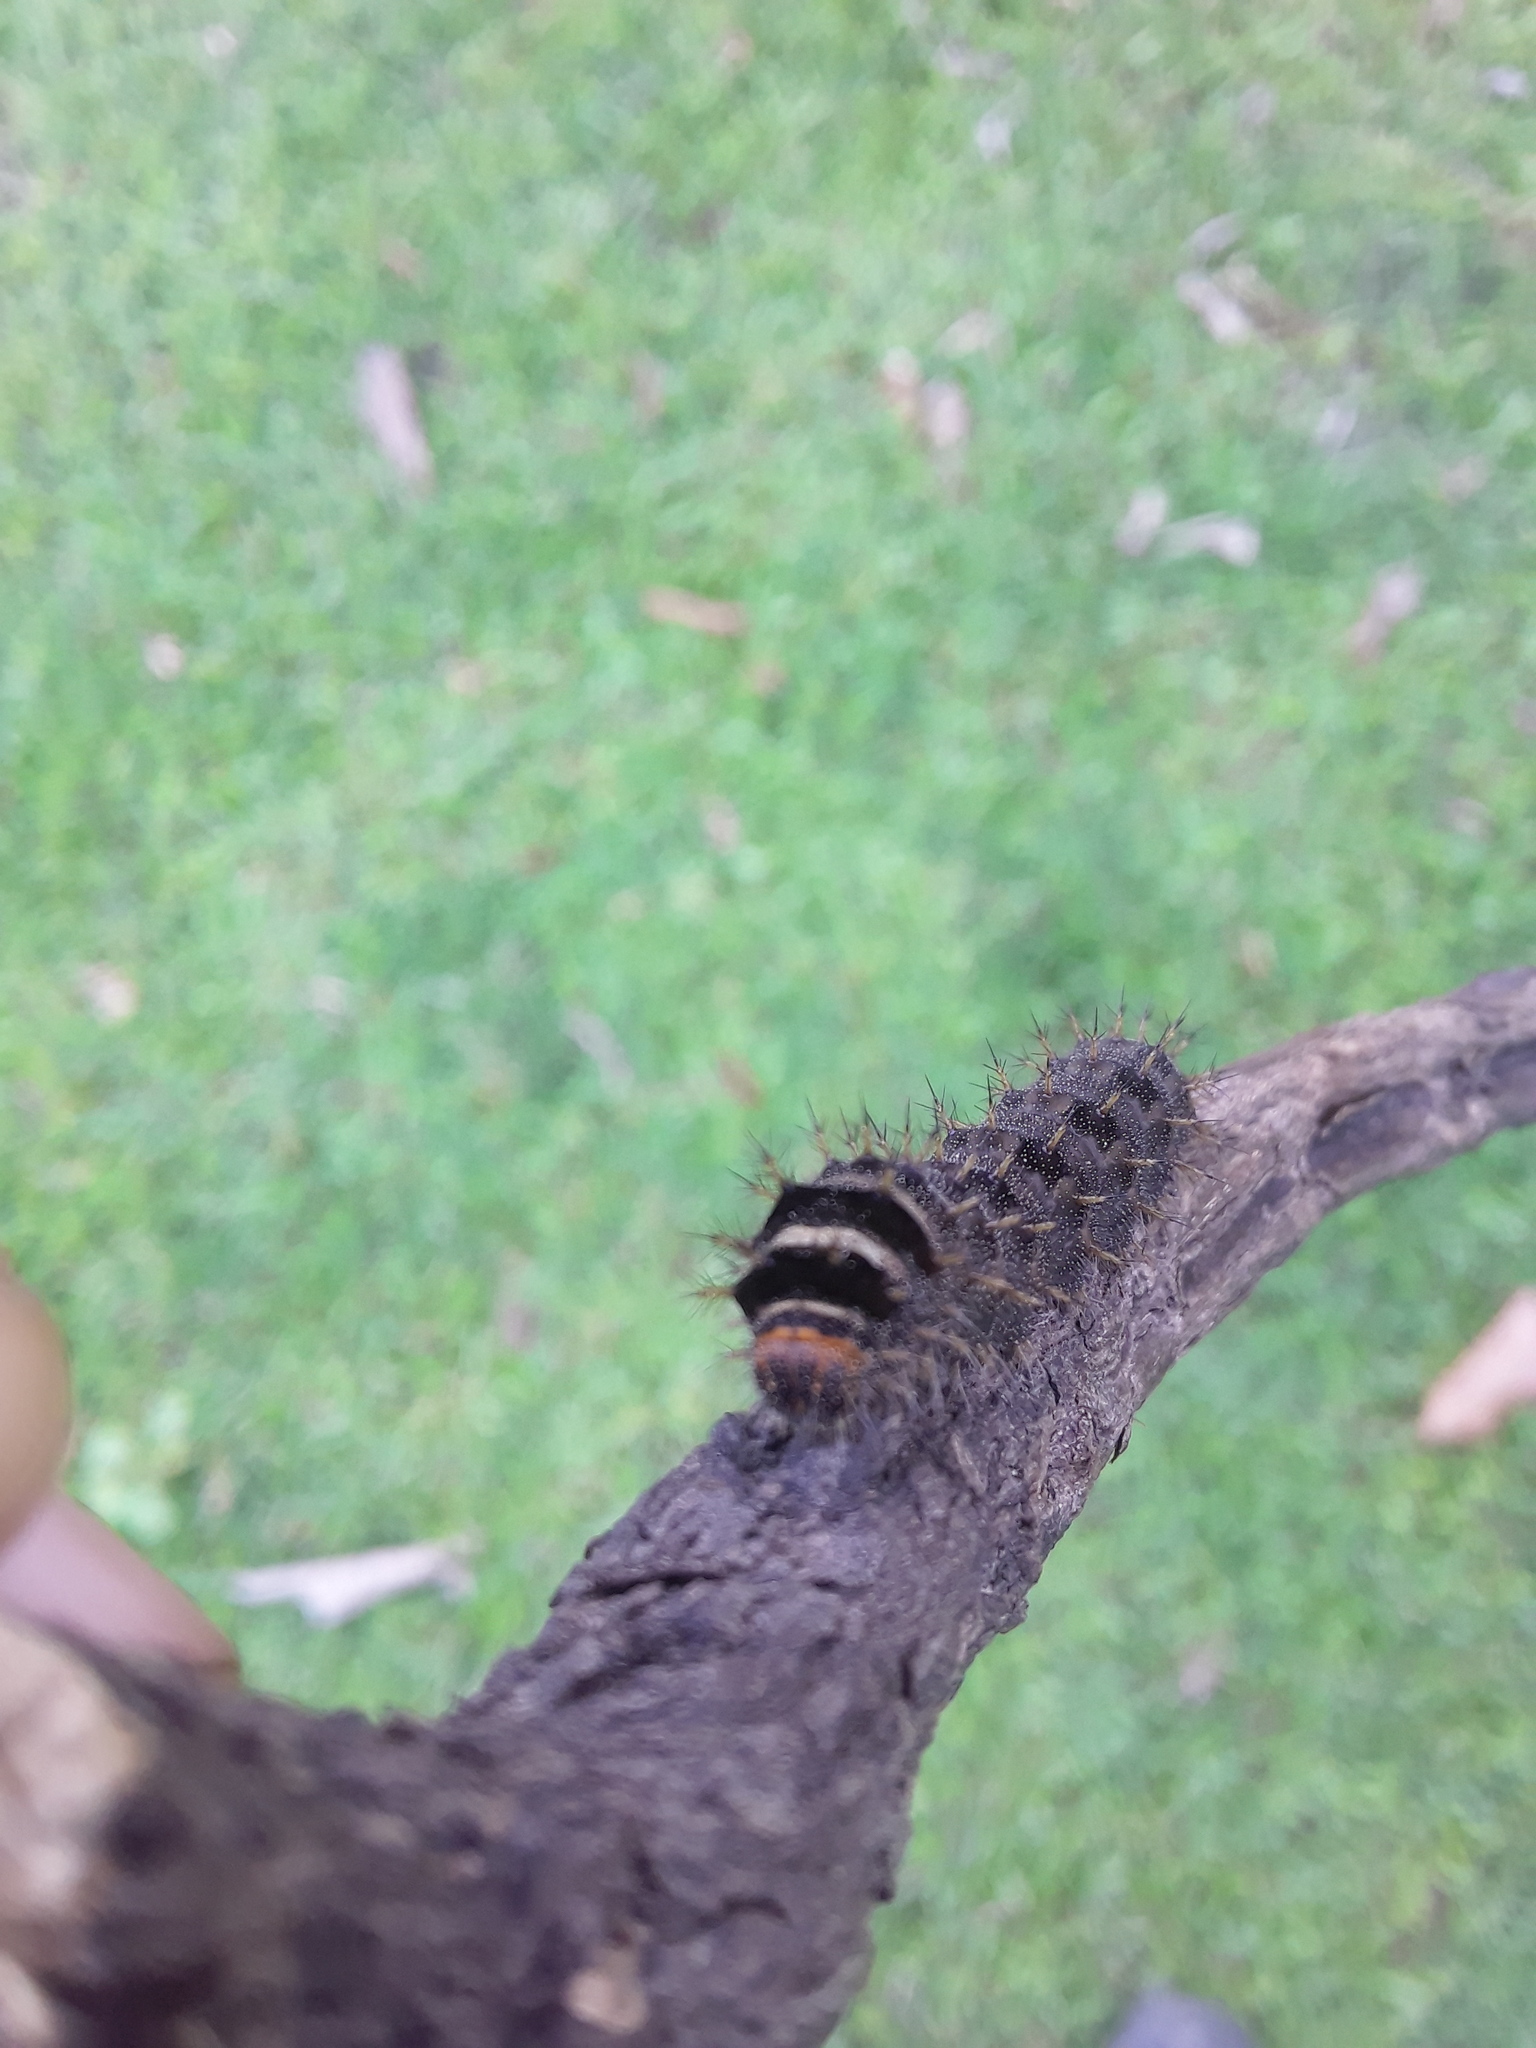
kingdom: Animalia
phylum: Arthropoda
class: Insecta
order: Lepidoptera
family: Nymphalidae
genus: Junonia
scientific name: Junonia almana
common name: Peacock pansy
